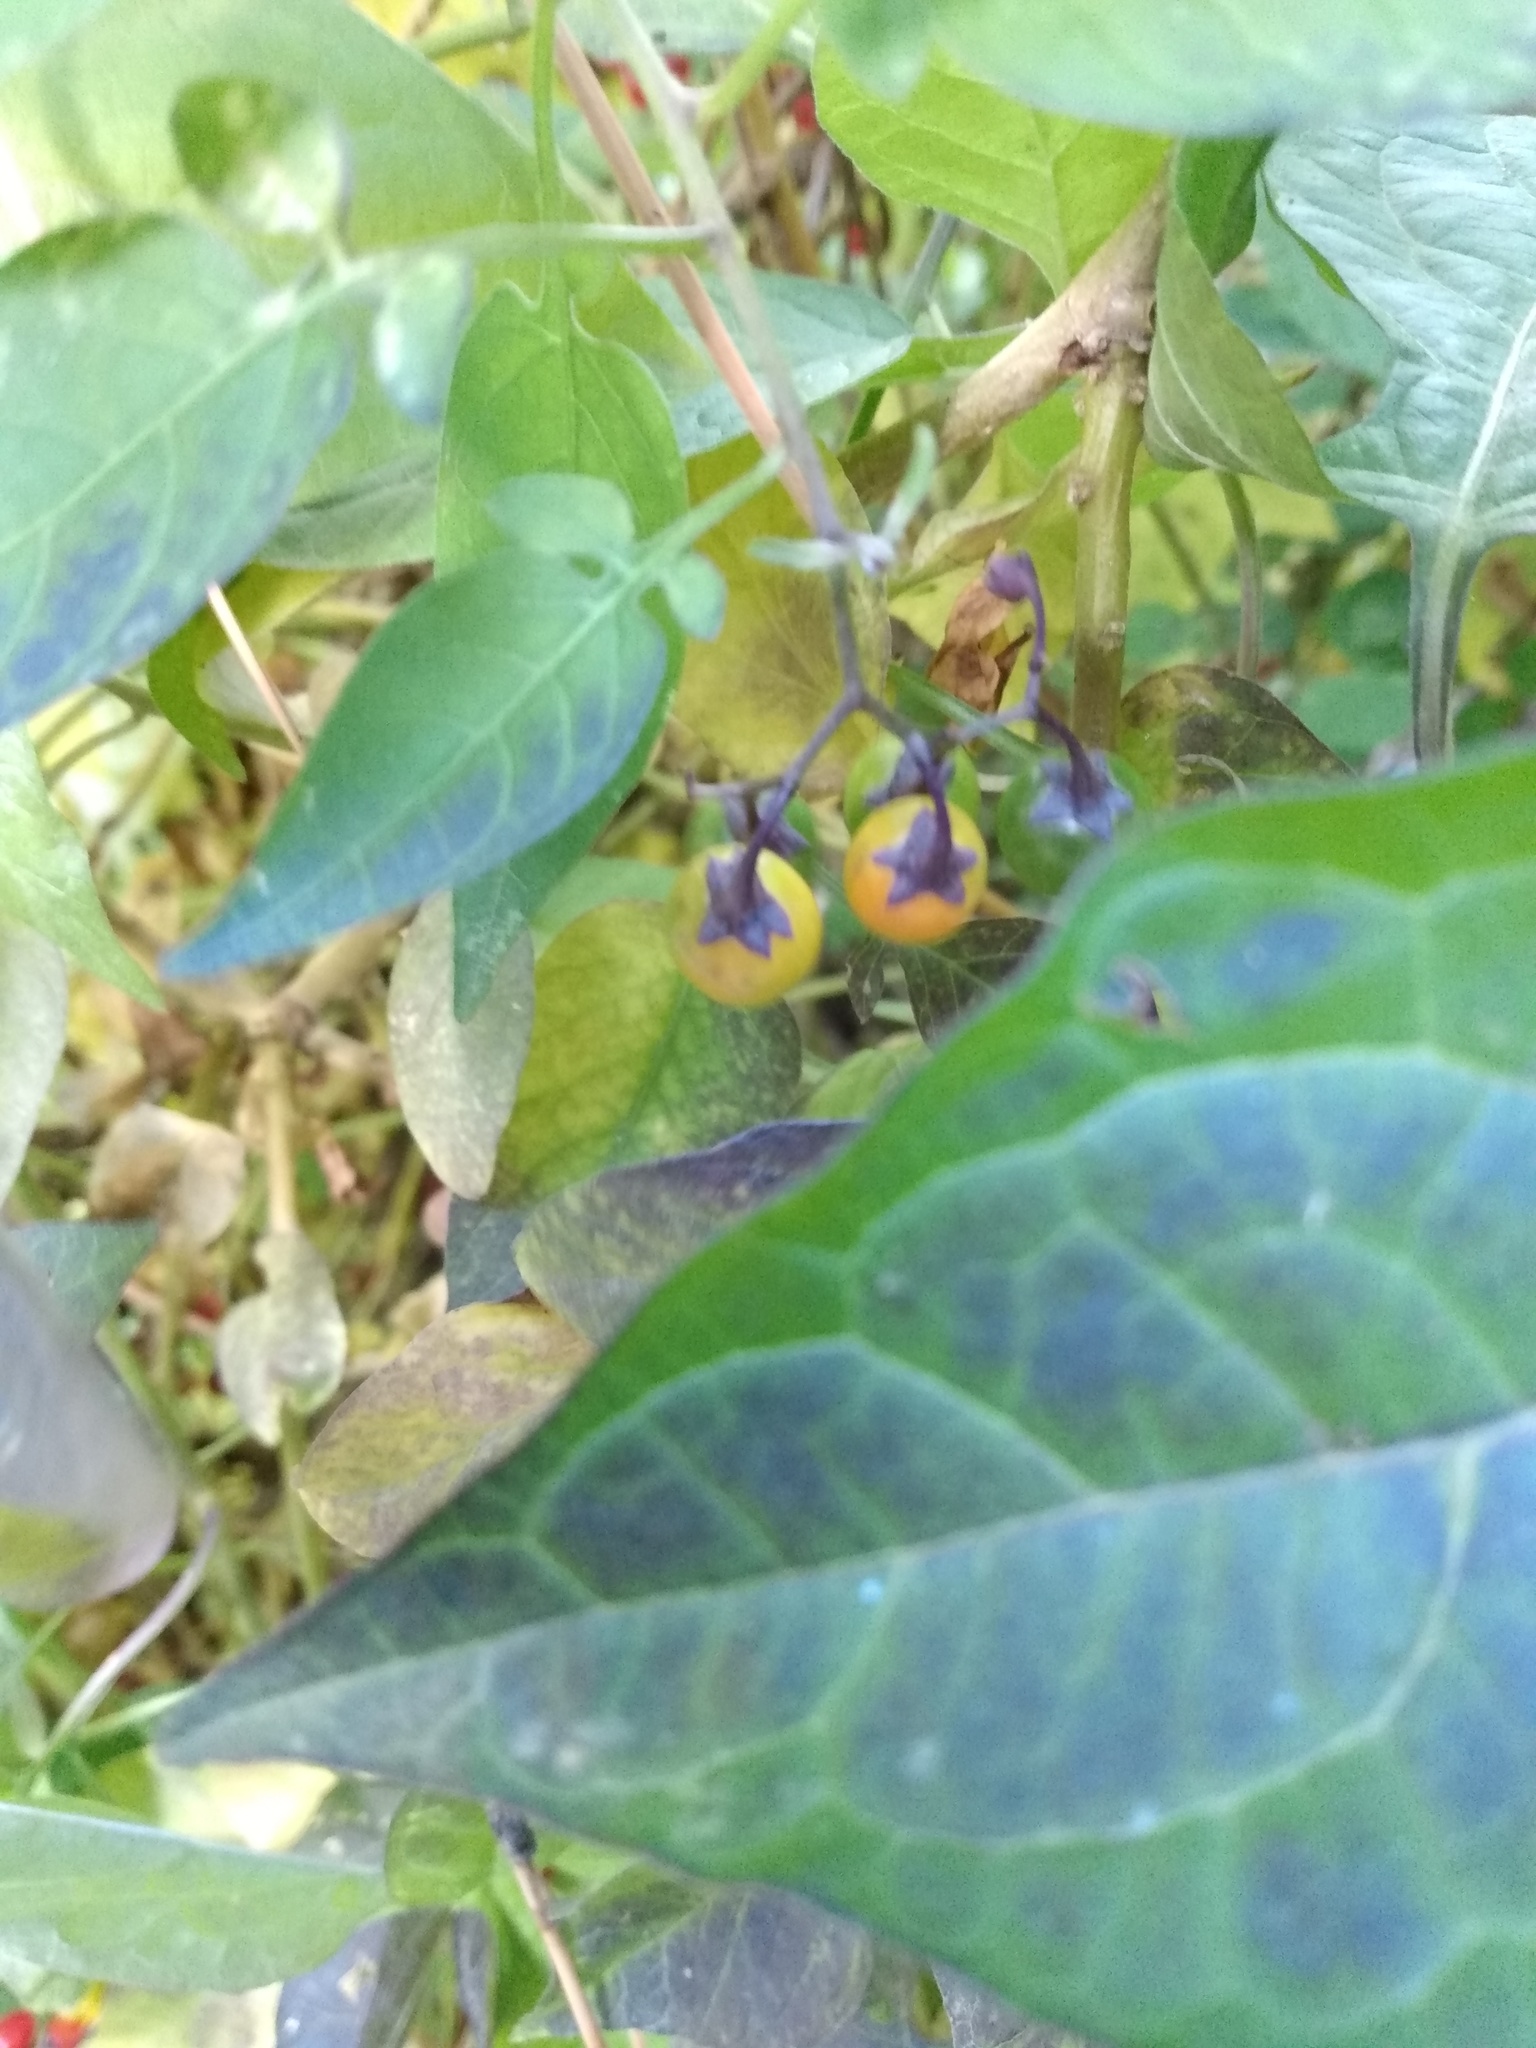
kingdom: Plantae
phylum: Tracheophyta
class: Magnoliopsida
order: Solanales
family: Solanaceae
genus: Solanum
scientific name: Solanum dulcamara
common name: Climbing nightshade
